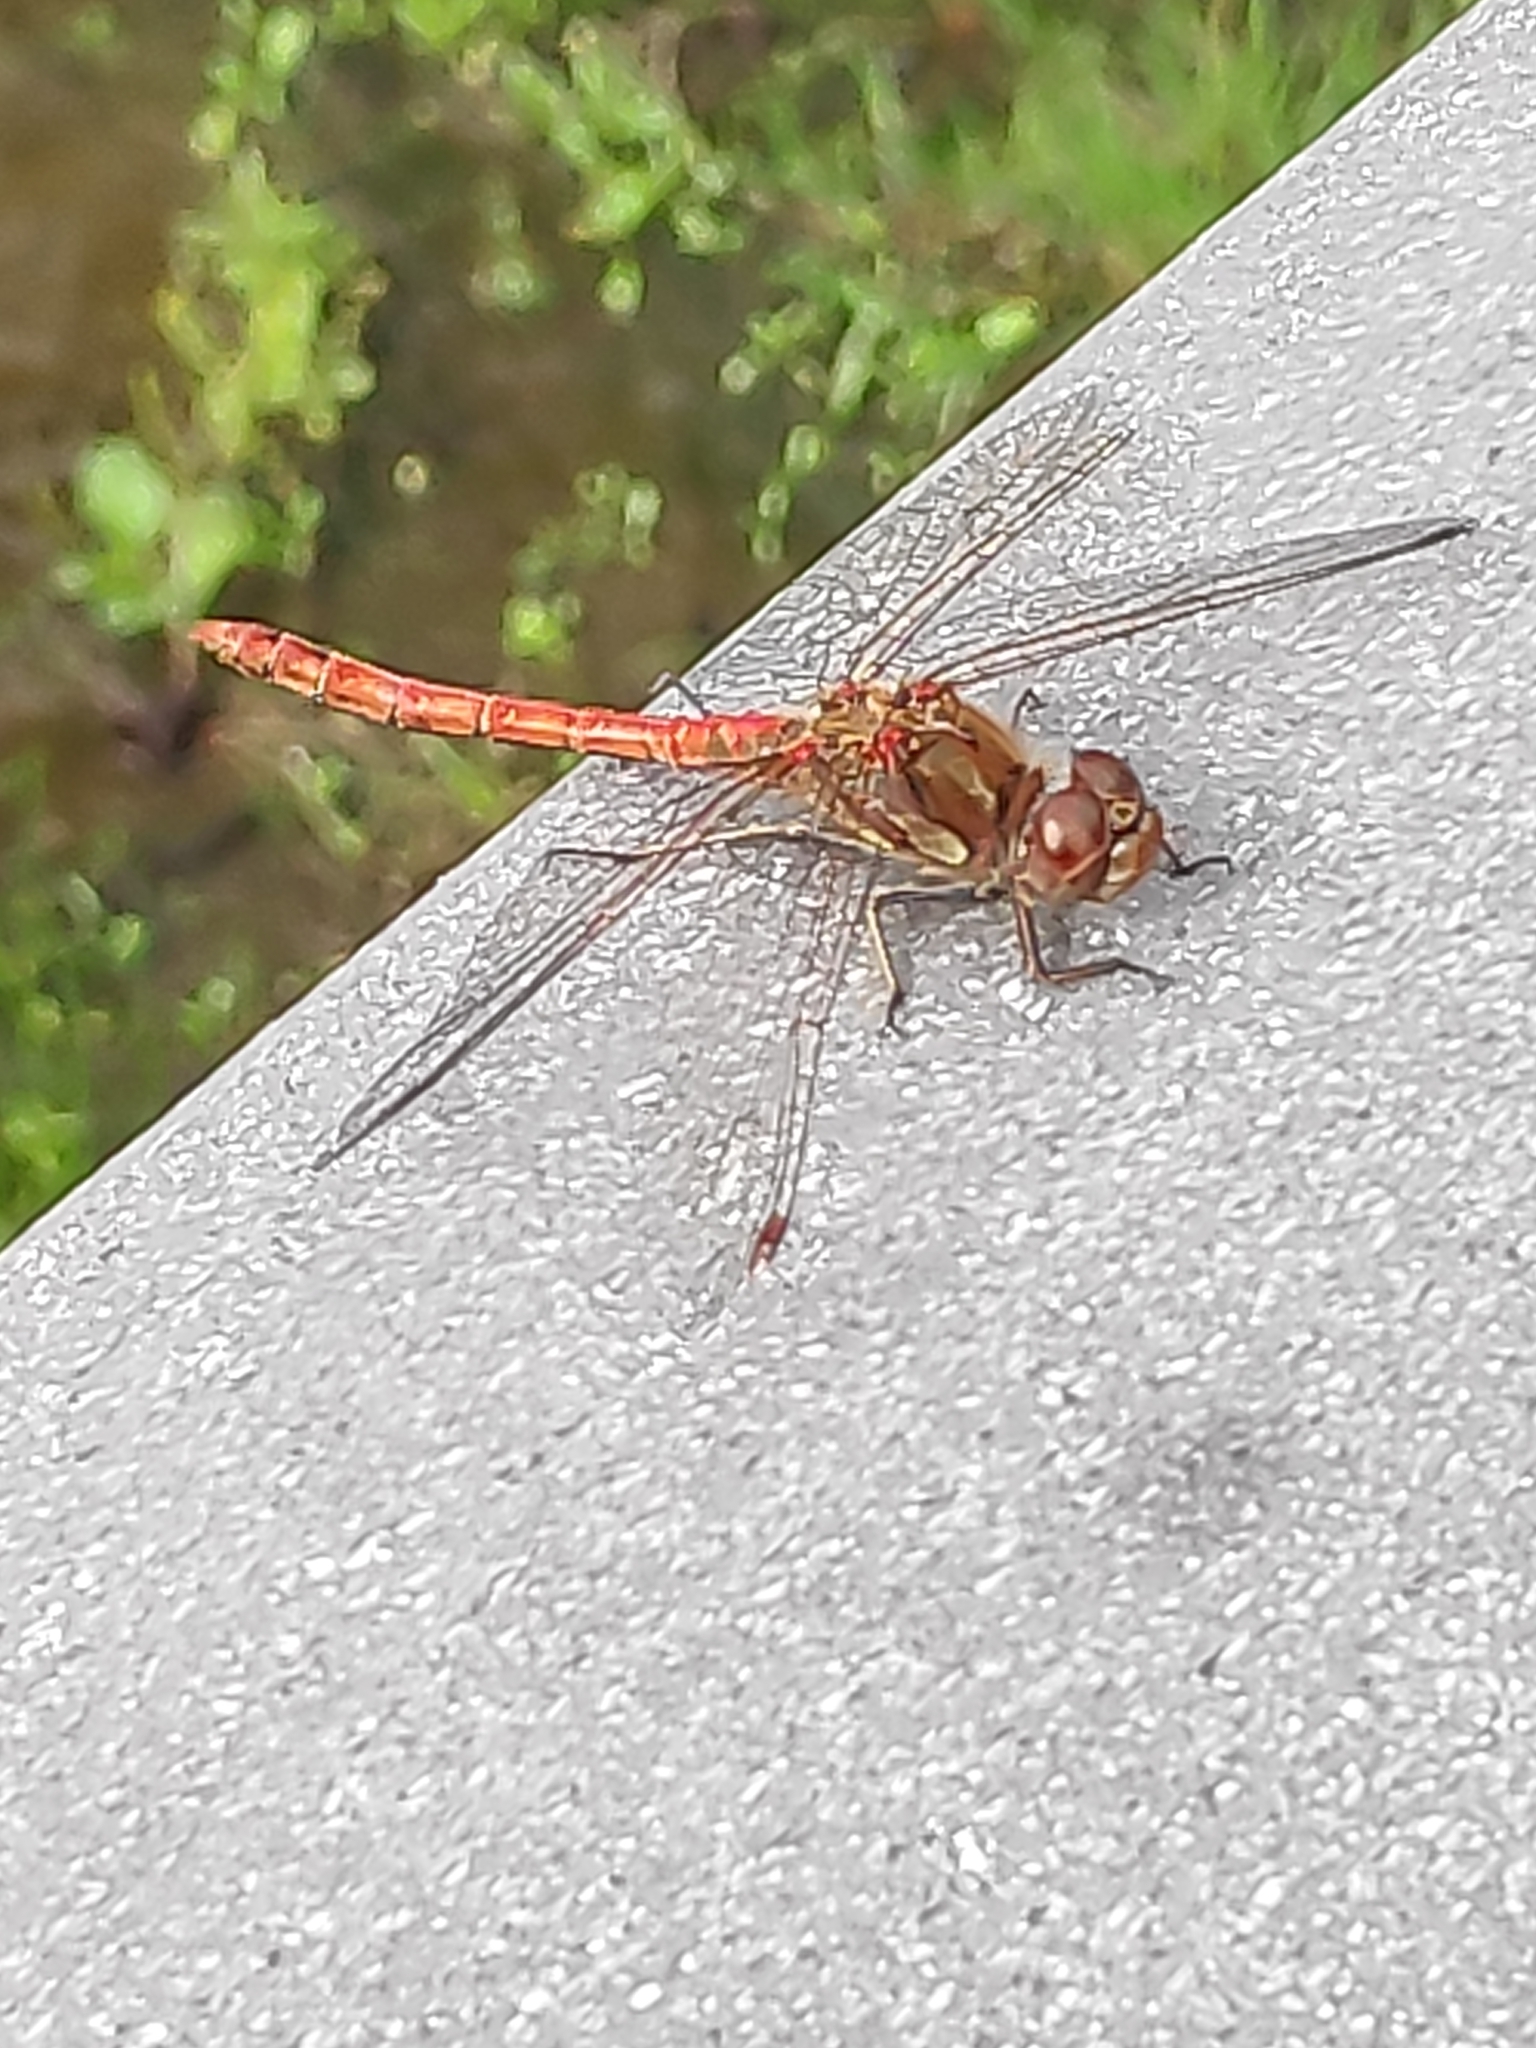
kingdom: Animalia
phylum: Arthropoda
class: Insecta
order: Odonata
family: Libellulidae
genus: Sympetrum
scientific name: Sympetrum striolatum
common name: Common darter
